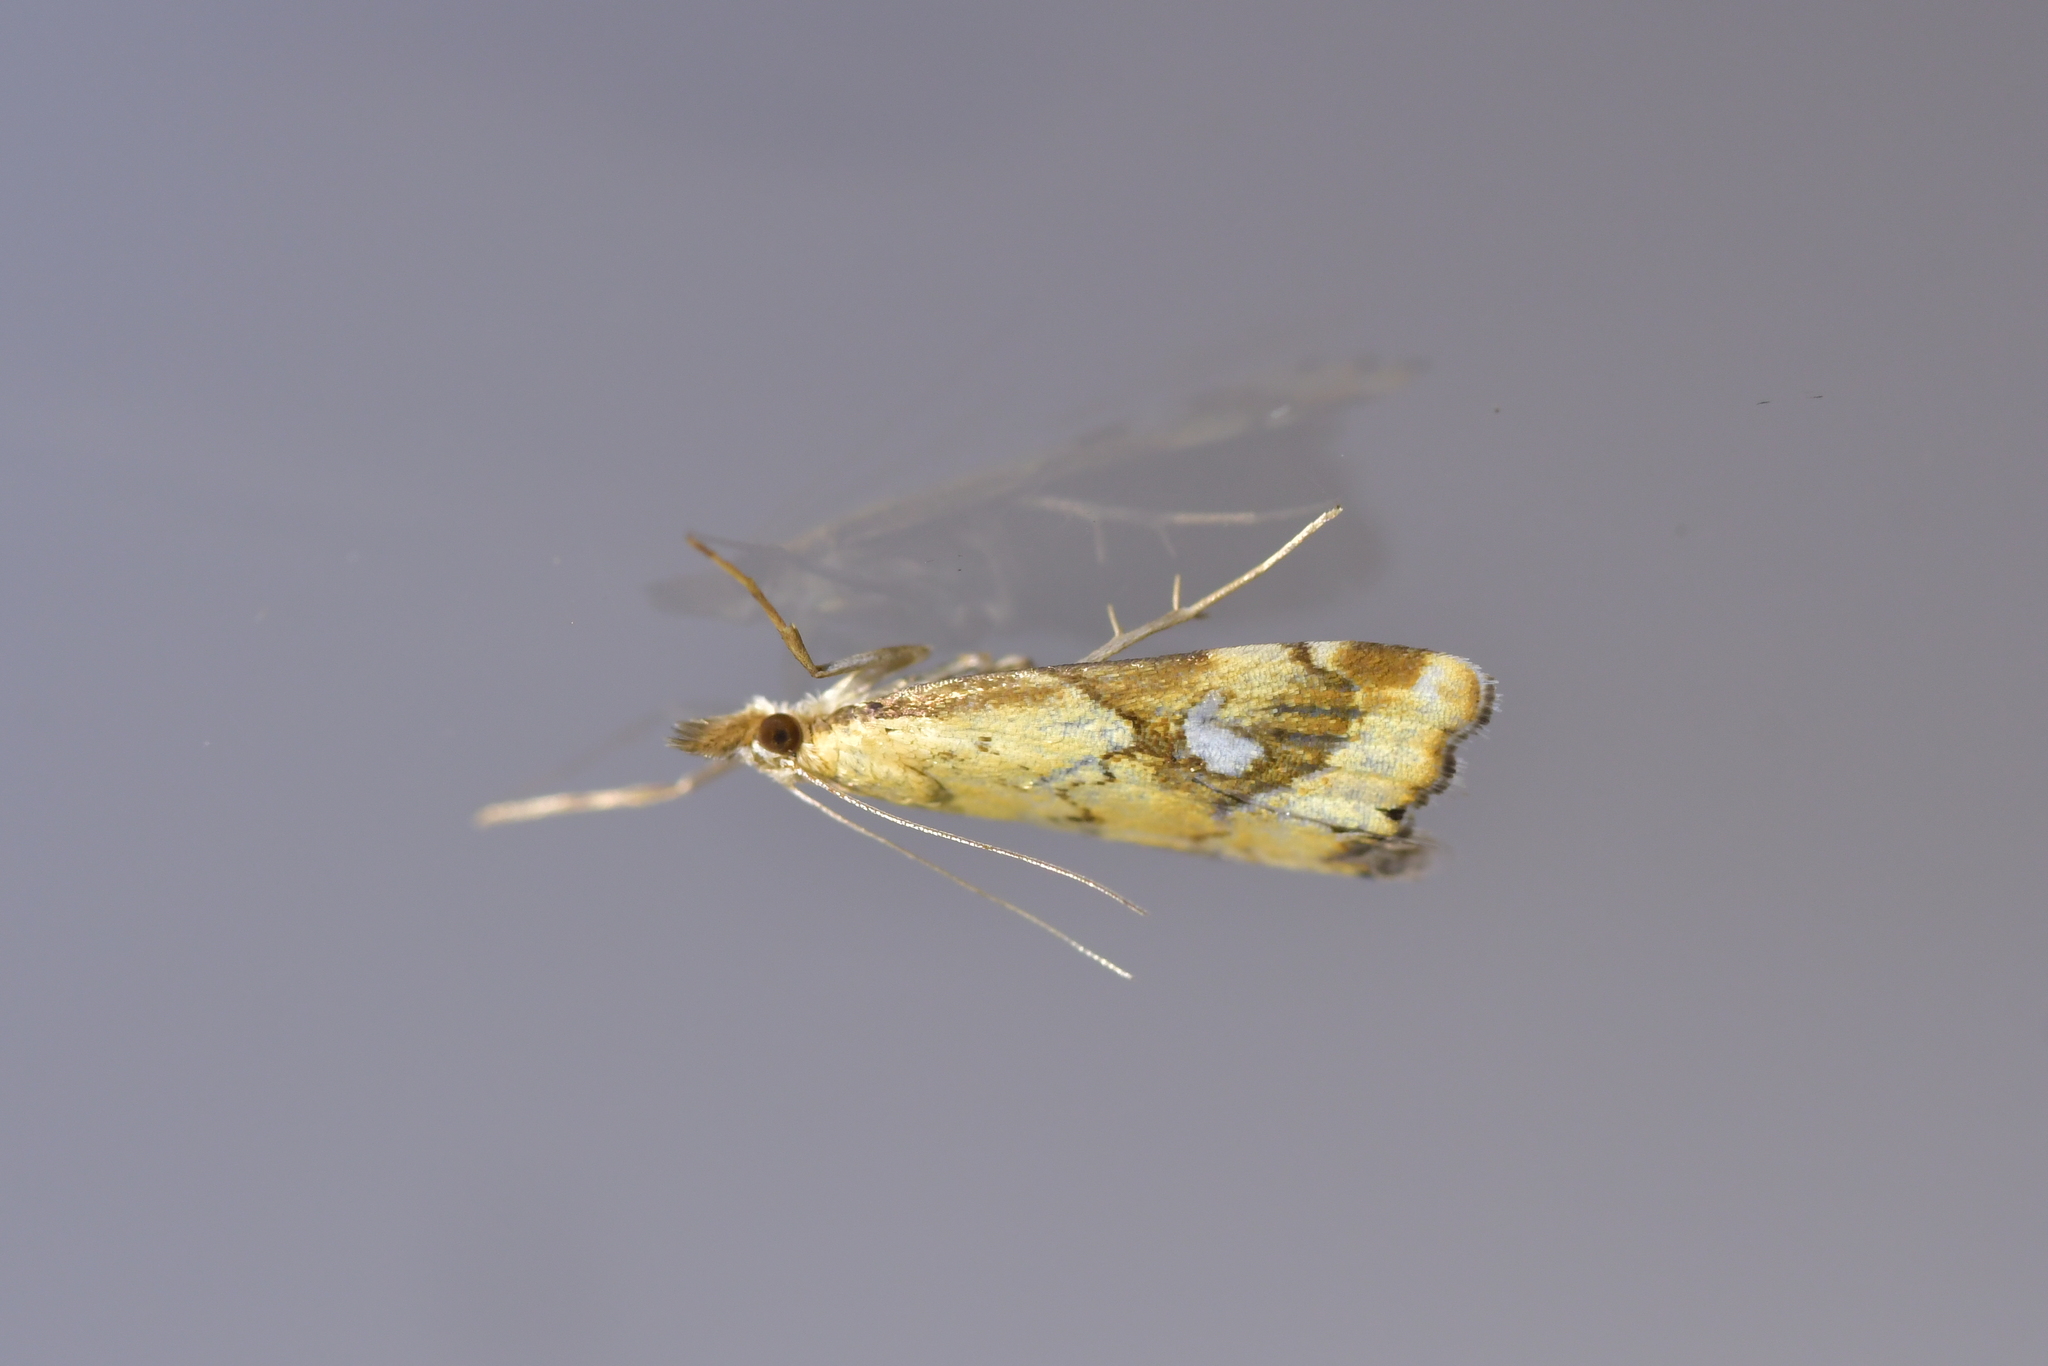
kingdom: Animalia
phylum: Arthropoda
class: Insecta
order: Lepidoptera
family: Crambidae
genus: Glaucocharis
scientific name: Glaucocharis lepidella
